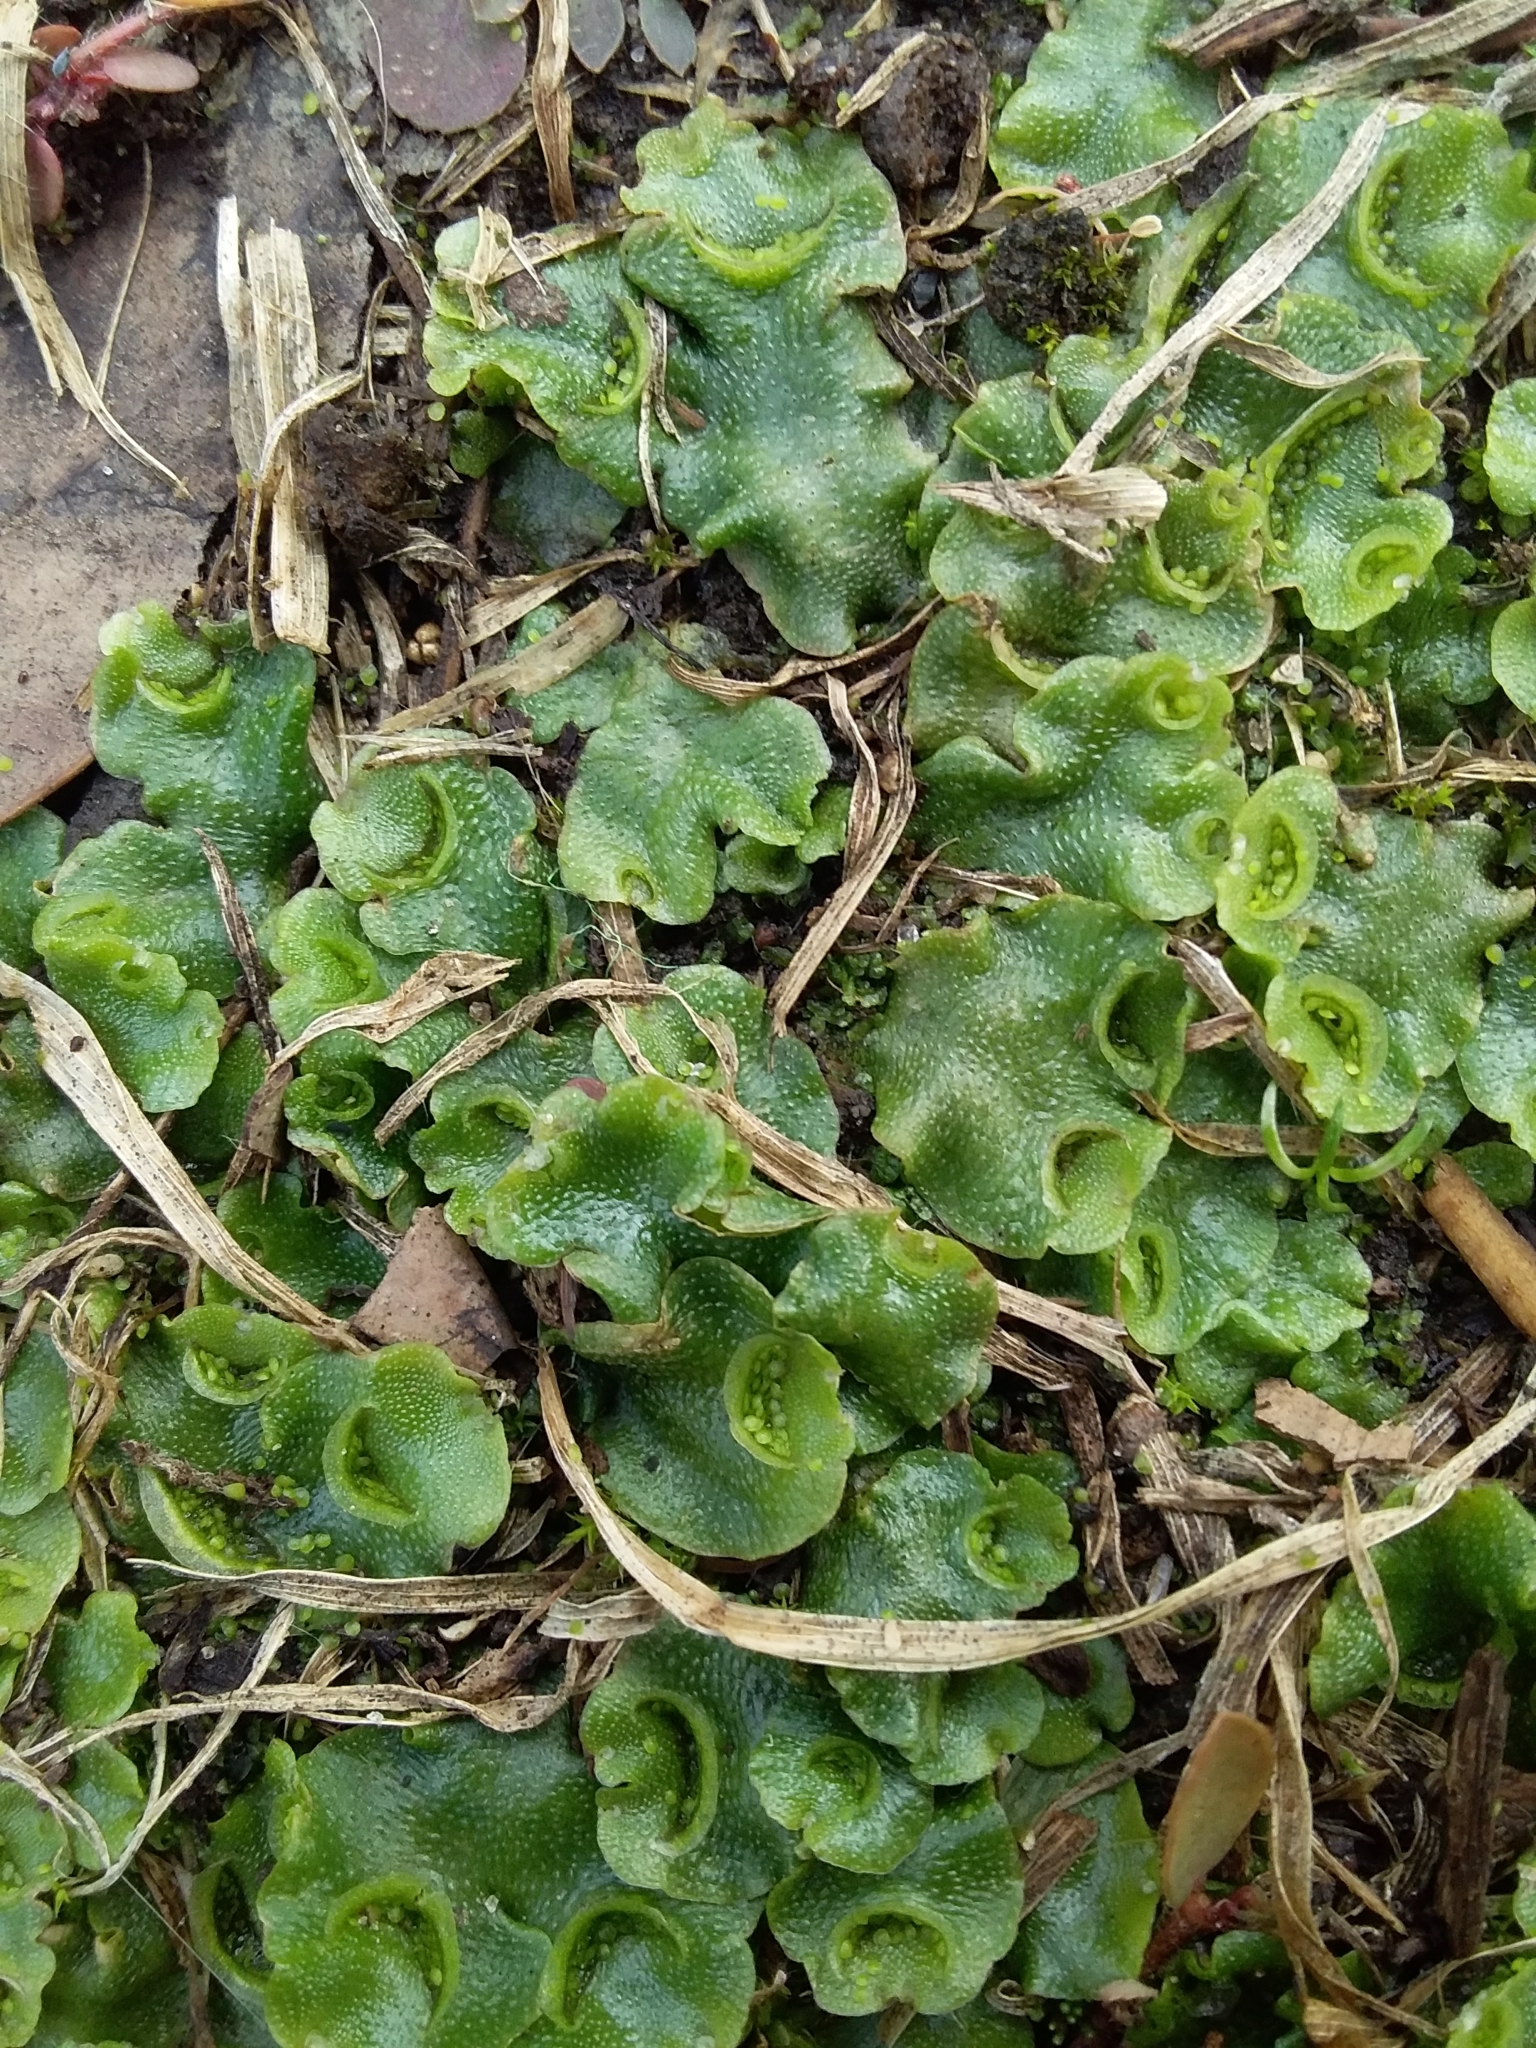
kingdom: Plantae
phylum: Marchantiophyta
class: Marchantiopsida
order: Lunulariales
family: Lunulariaceae
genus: Lunularia
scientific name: Lunularia cruciata
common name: Crescent-cup liverwort
